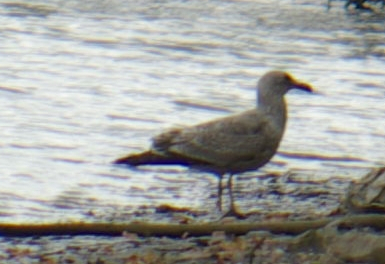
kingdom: Animalia
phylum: Chordata
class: Aves
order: Charadriiformes
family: Laridae
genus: Larus
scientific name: Larus argentatus
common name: Herring gull
